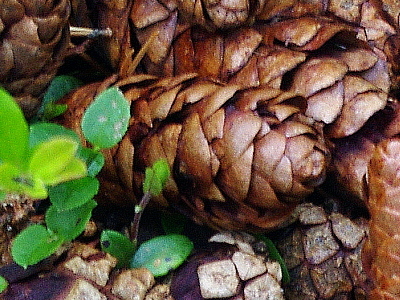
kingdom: Plantae
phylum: Tracheophyta
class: Pinopsida
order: Pinales
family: Pinaceae
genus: Picea
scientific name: Picea fennica
